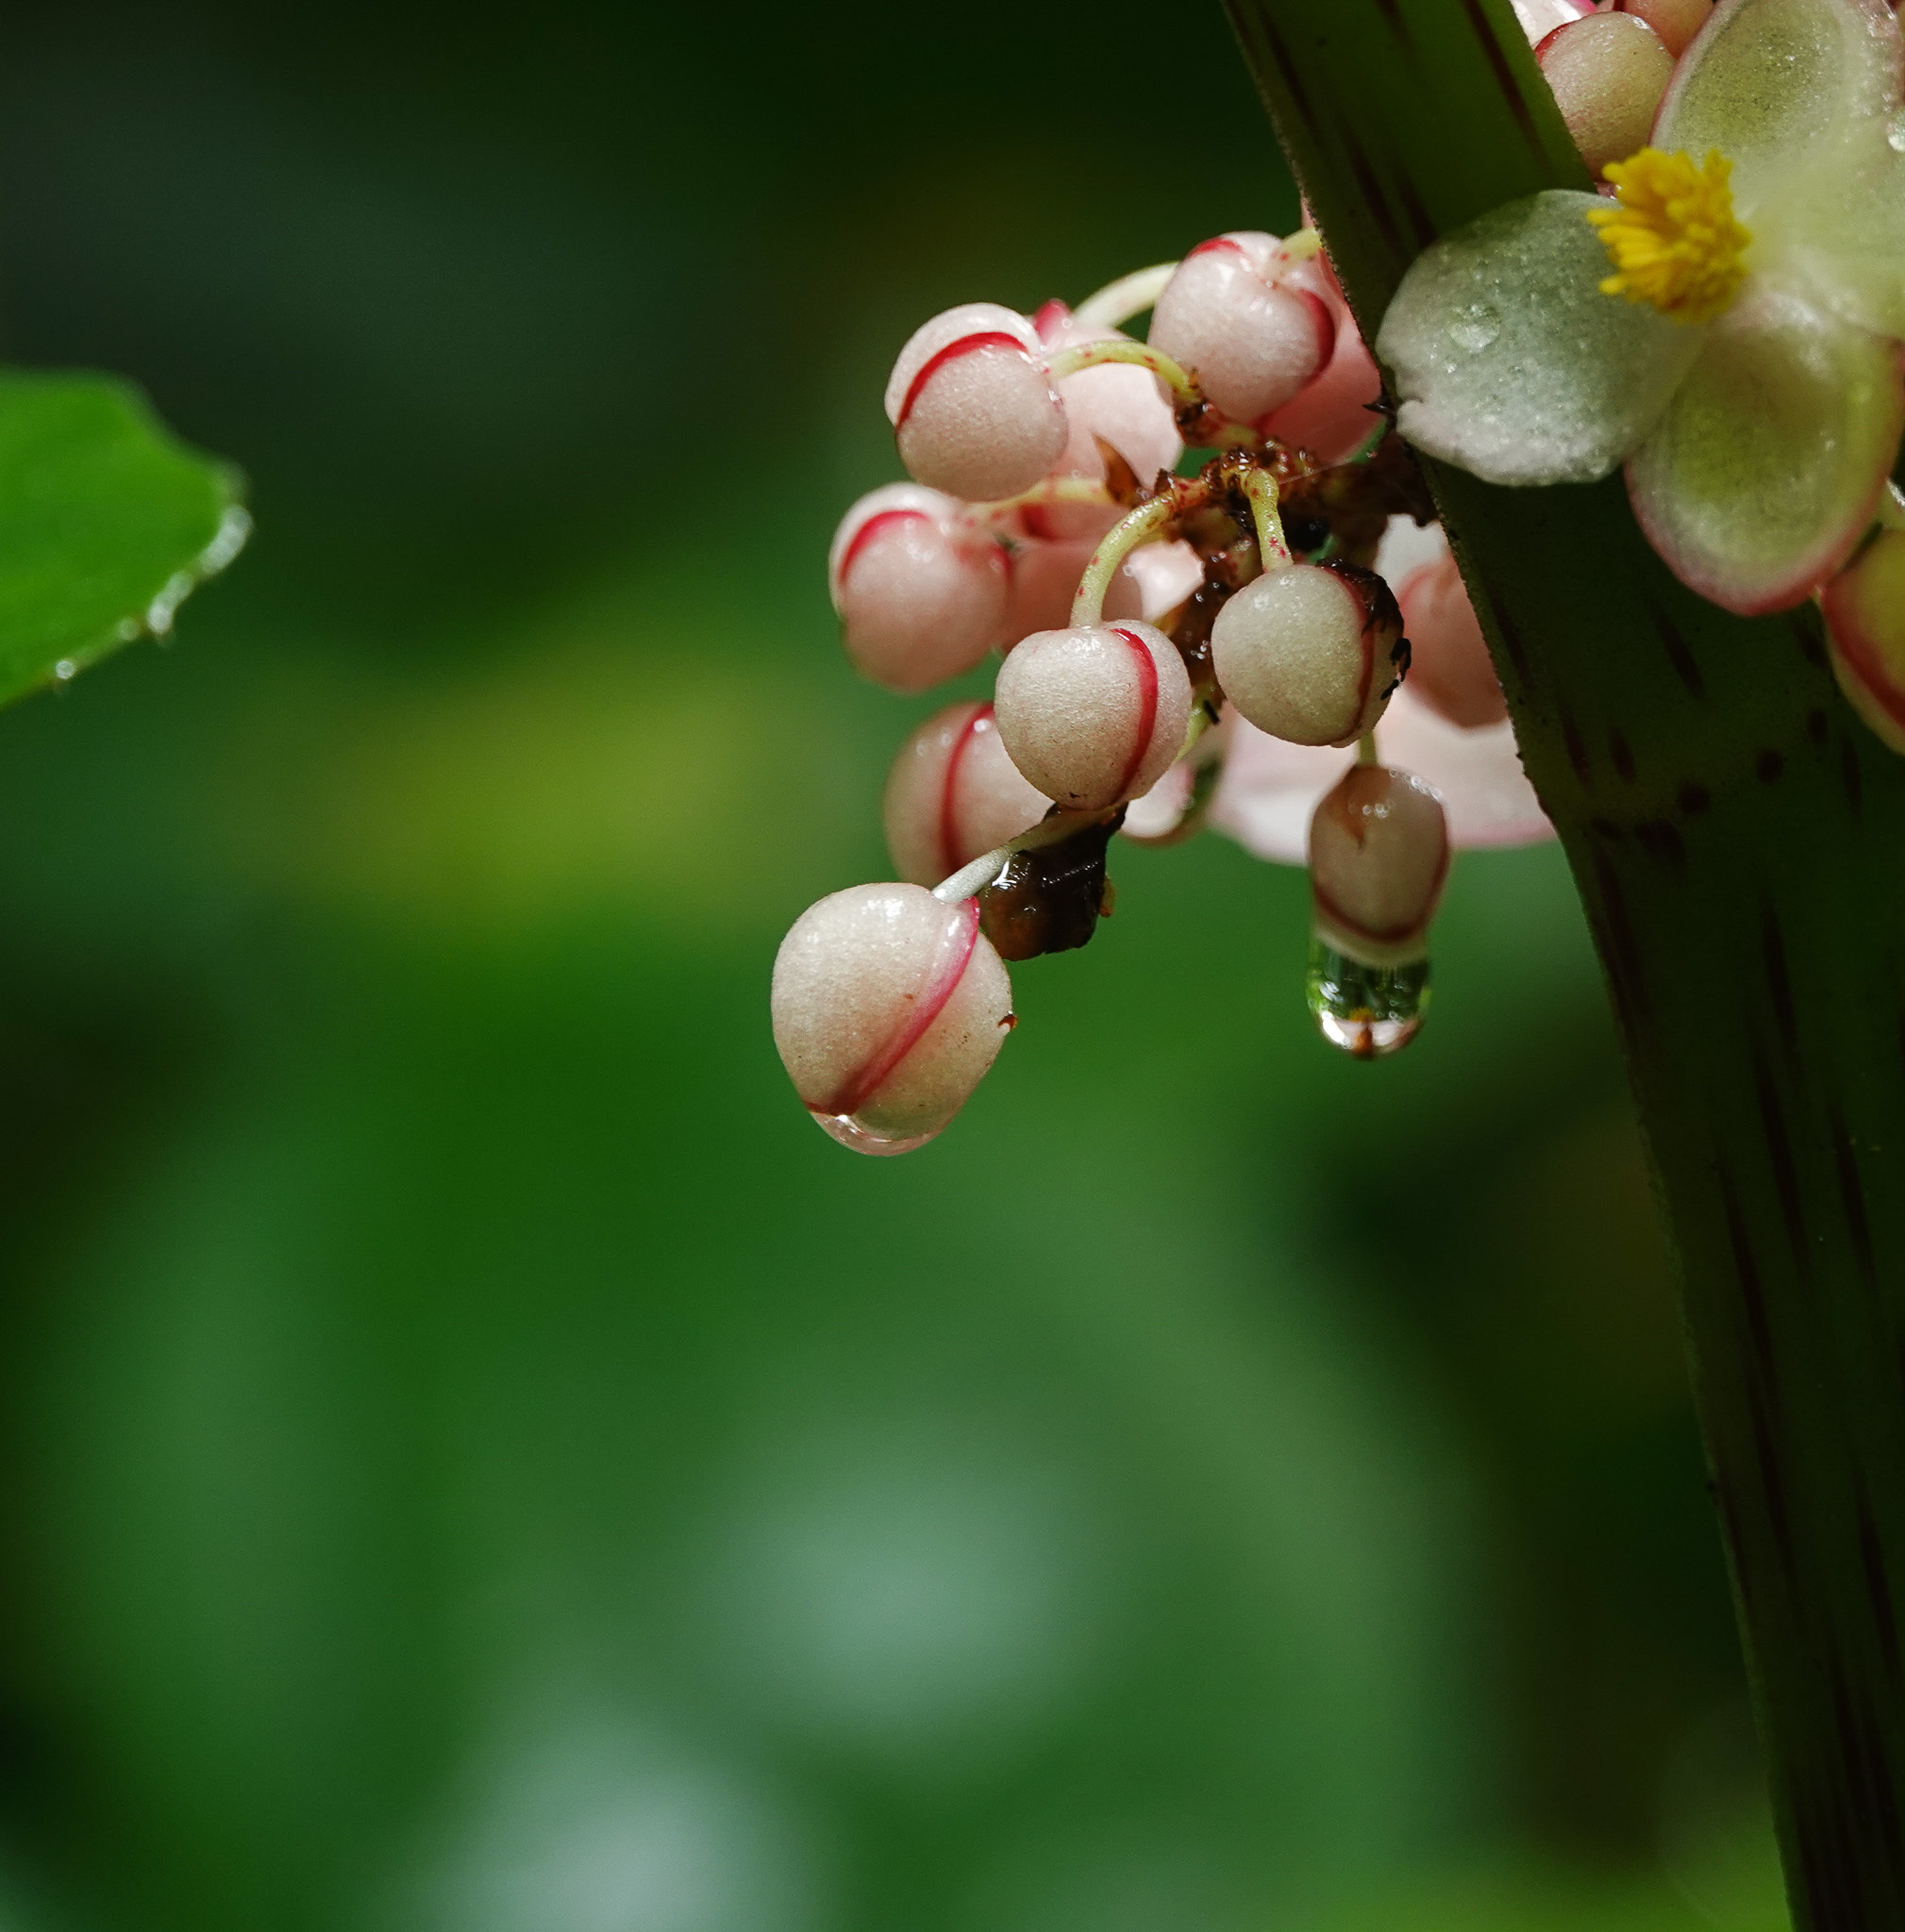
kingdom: Plantae
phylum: Tracheophyta
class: Magnoliopsida
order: Cucurbitales
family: Begoniaceae
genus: Begonia
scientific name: Begonia roxburghii
